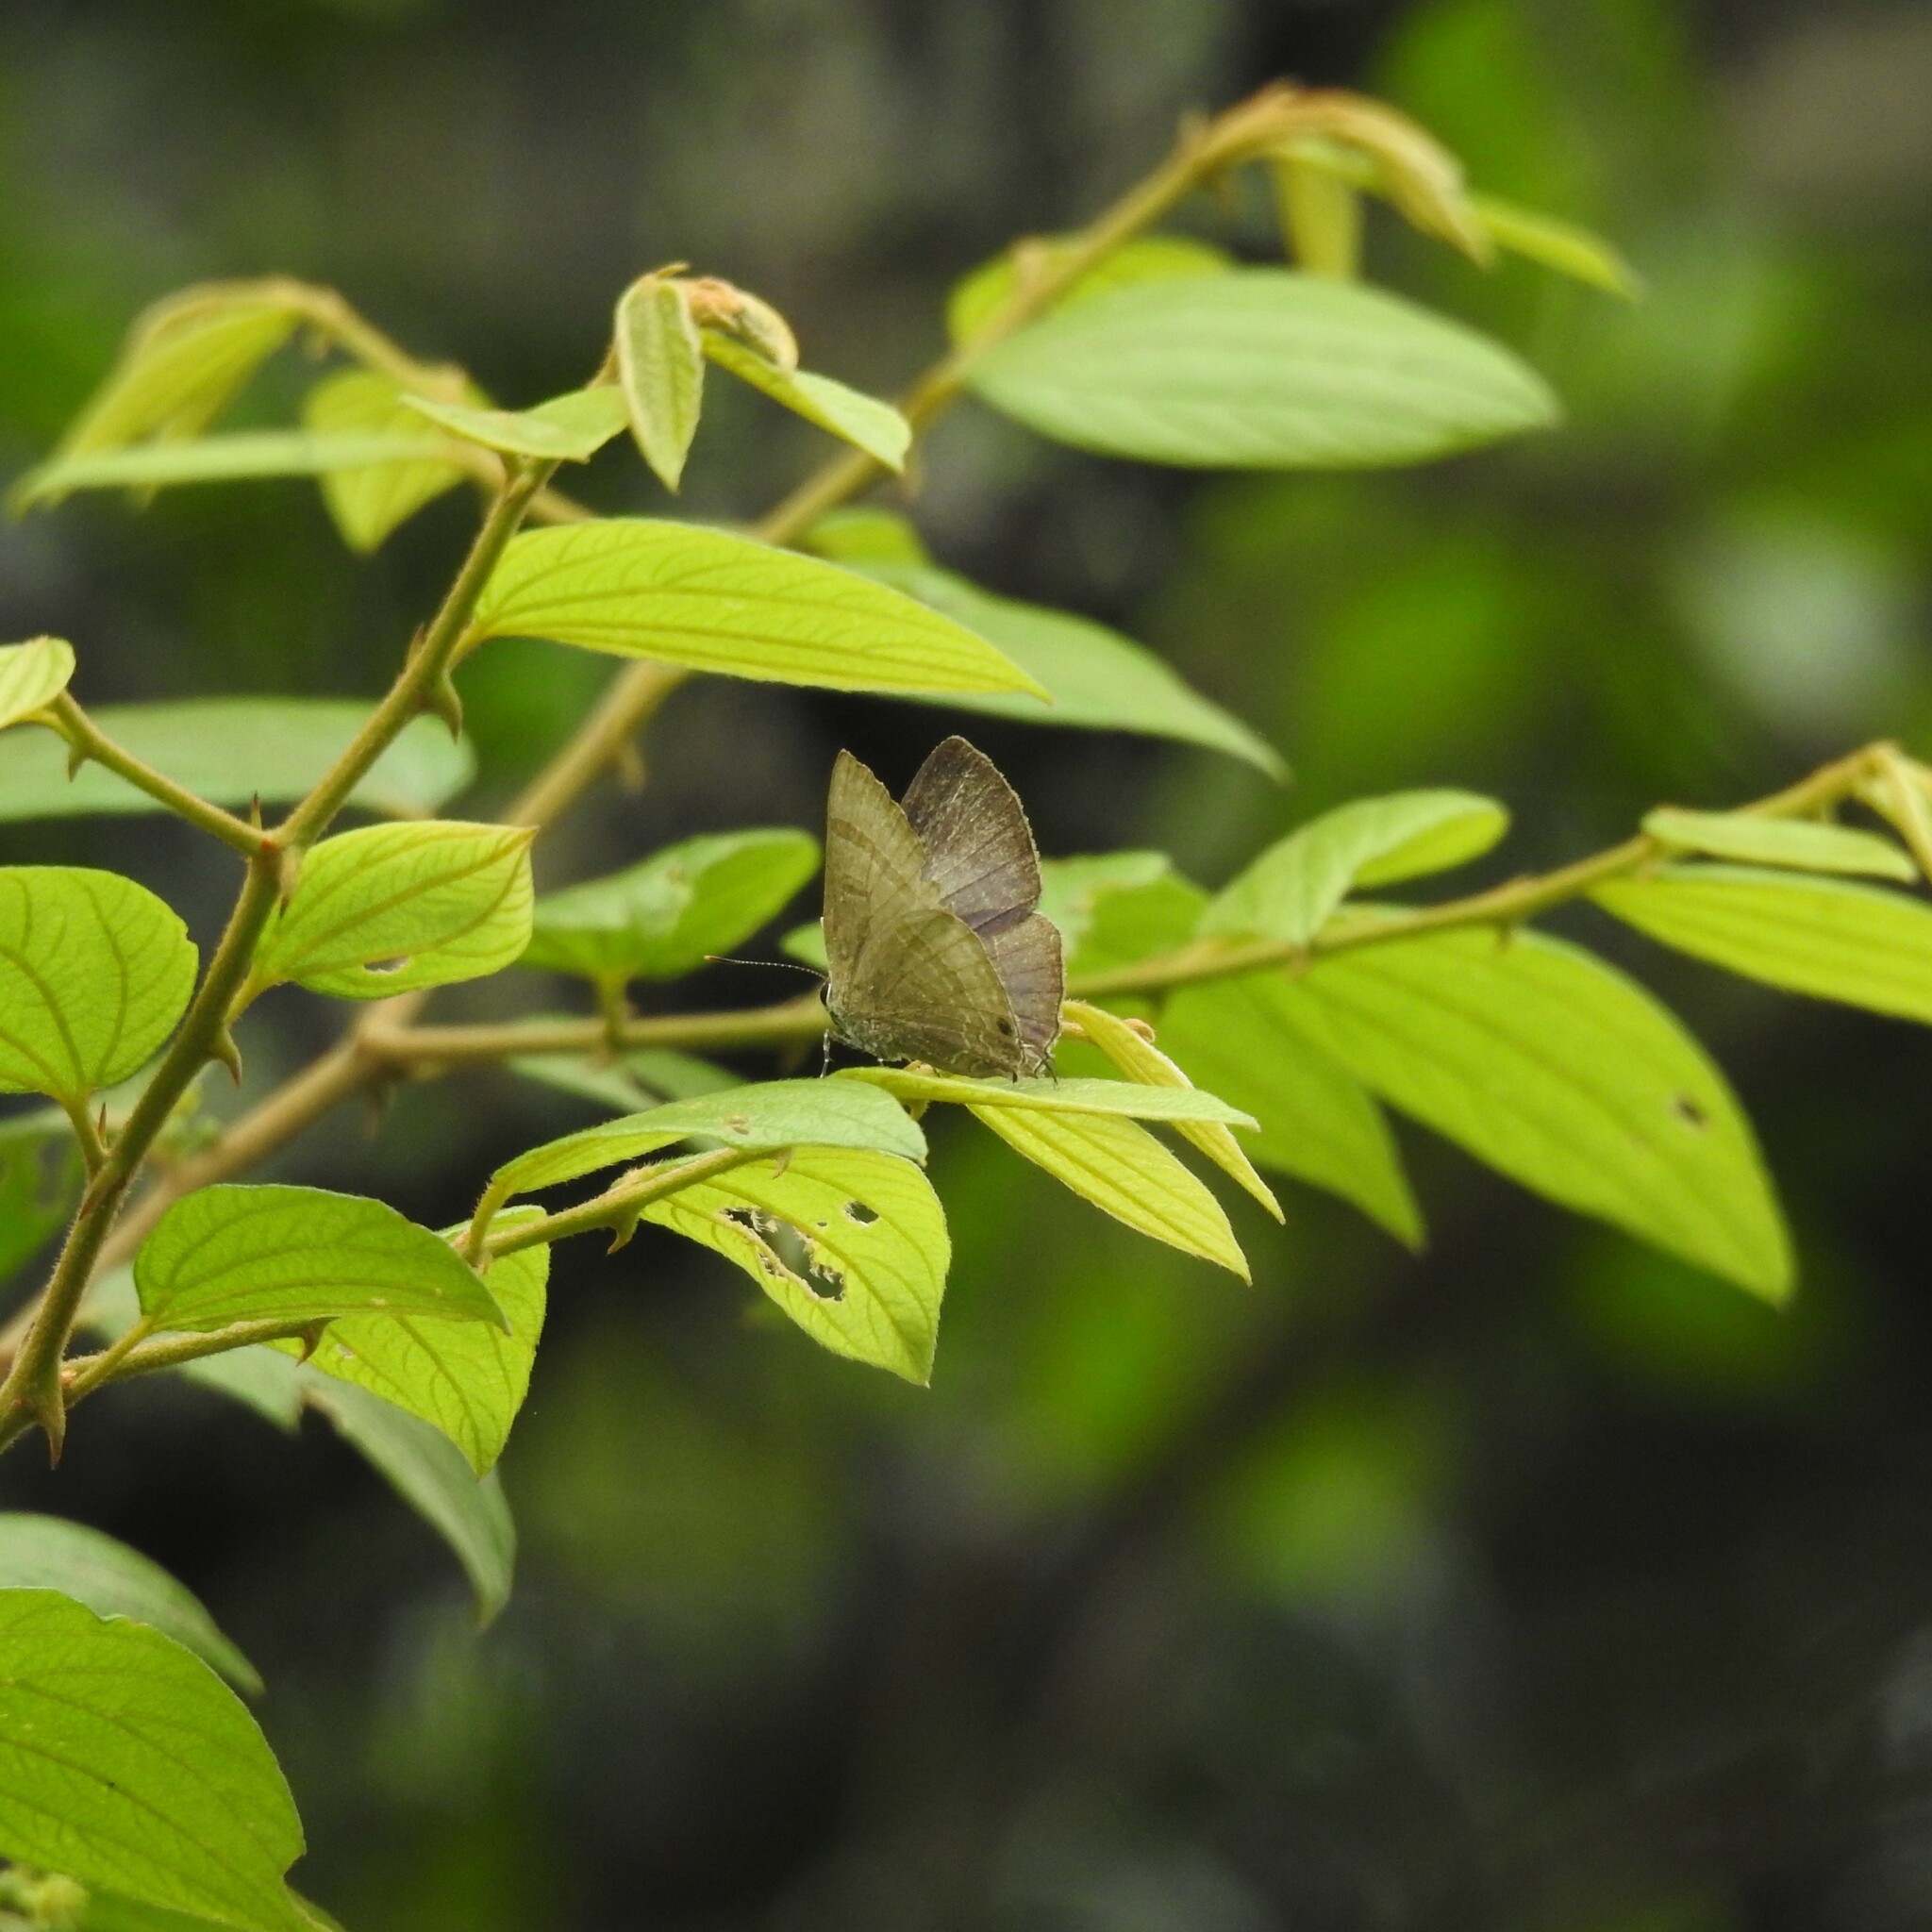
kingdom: Animalia
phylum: Arthropoda
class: Insecta
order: Lepidoptera
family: Lycaenidae
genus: Rapala
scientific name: Rapala varuna
